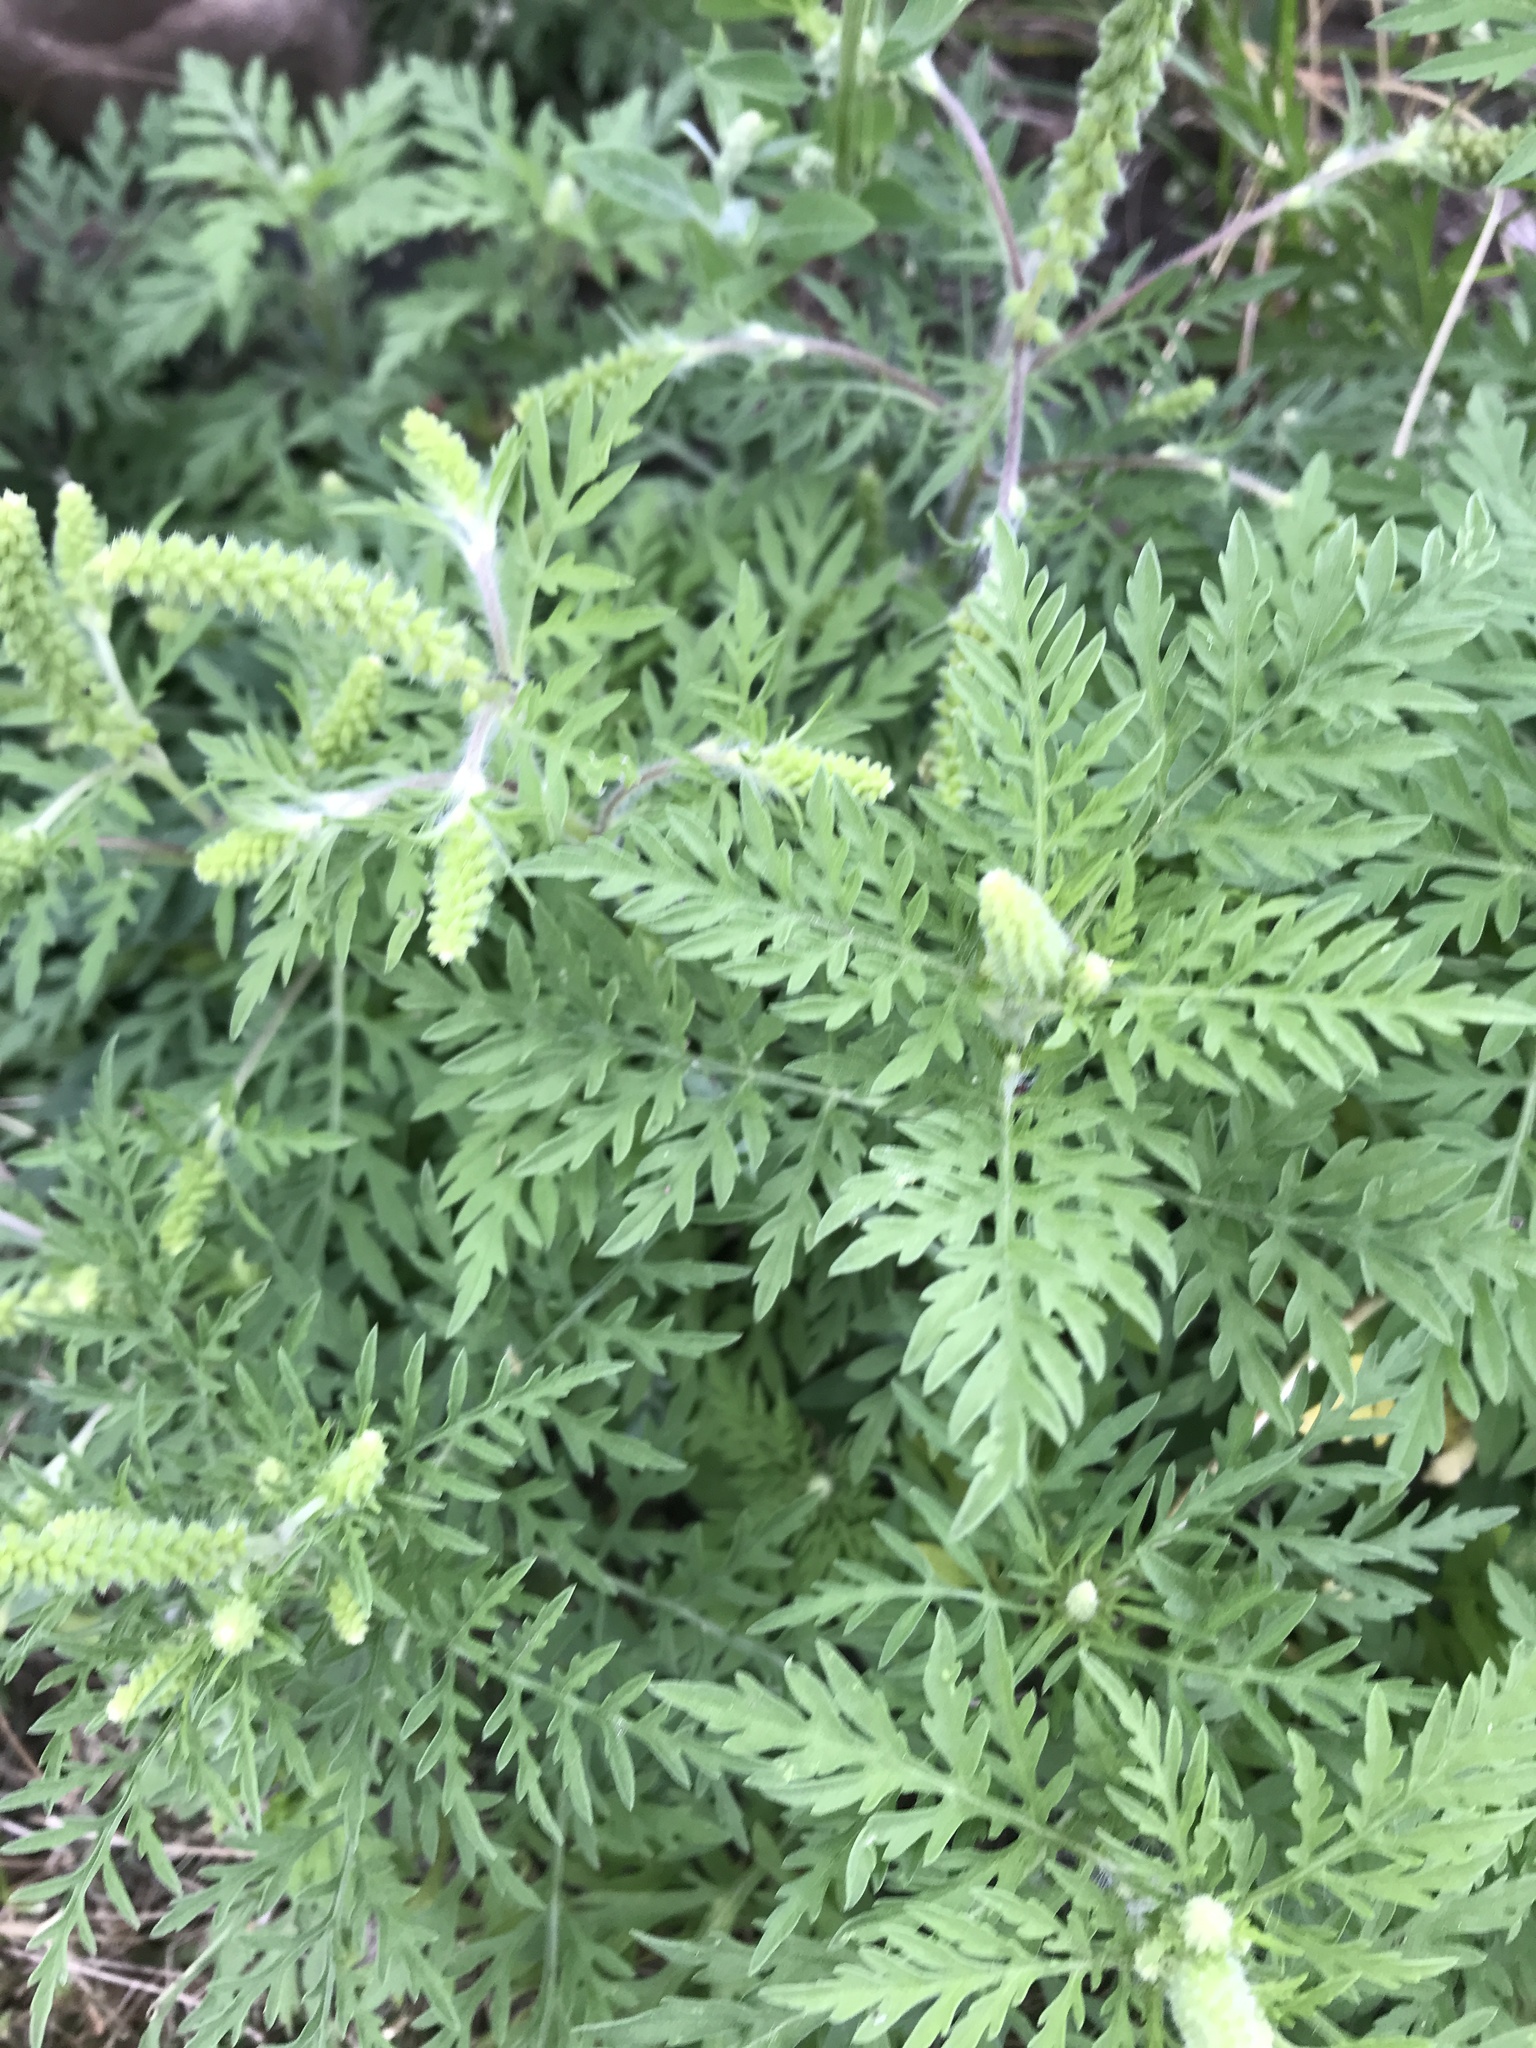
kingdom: Plantae
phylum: Tracheophyta
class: Magnoliopsida
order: Asterales
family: Asteraceae
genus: Ambrosia
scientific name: Ambrosia artemisiifolia
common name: Annual ragweed
